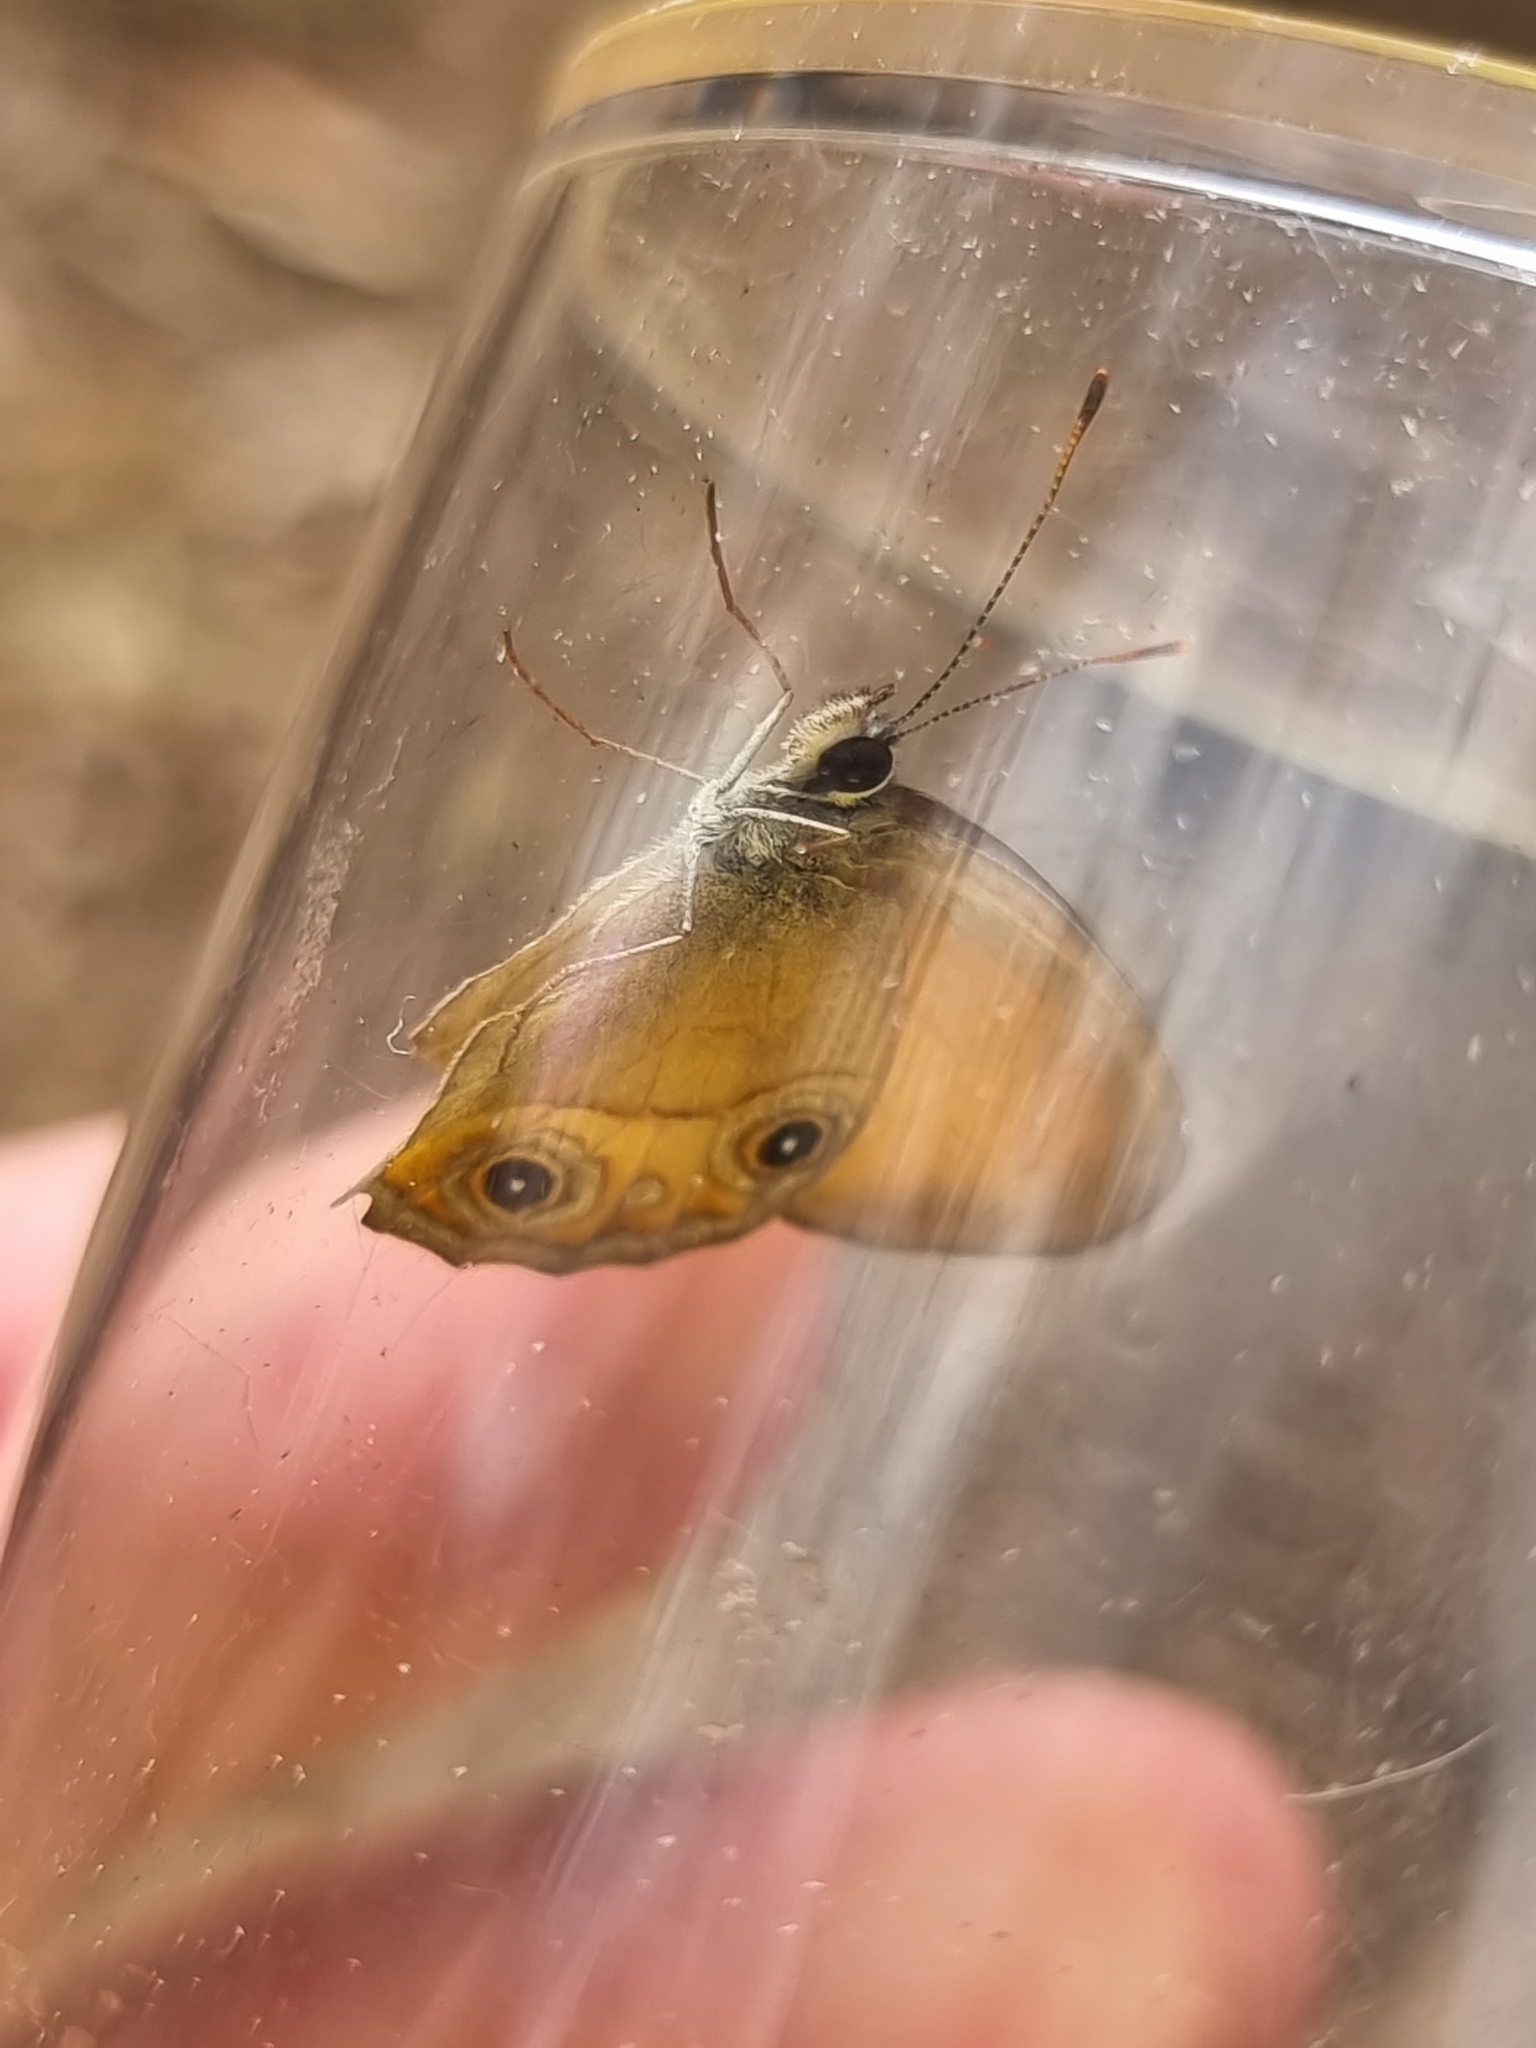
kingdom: Animalia
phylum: Arthropoda
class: Insecta
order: Lepidoptera
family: Nymphalidae
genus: Hypocysta
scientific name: Hypocysta adiante
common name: Orange ringlet
